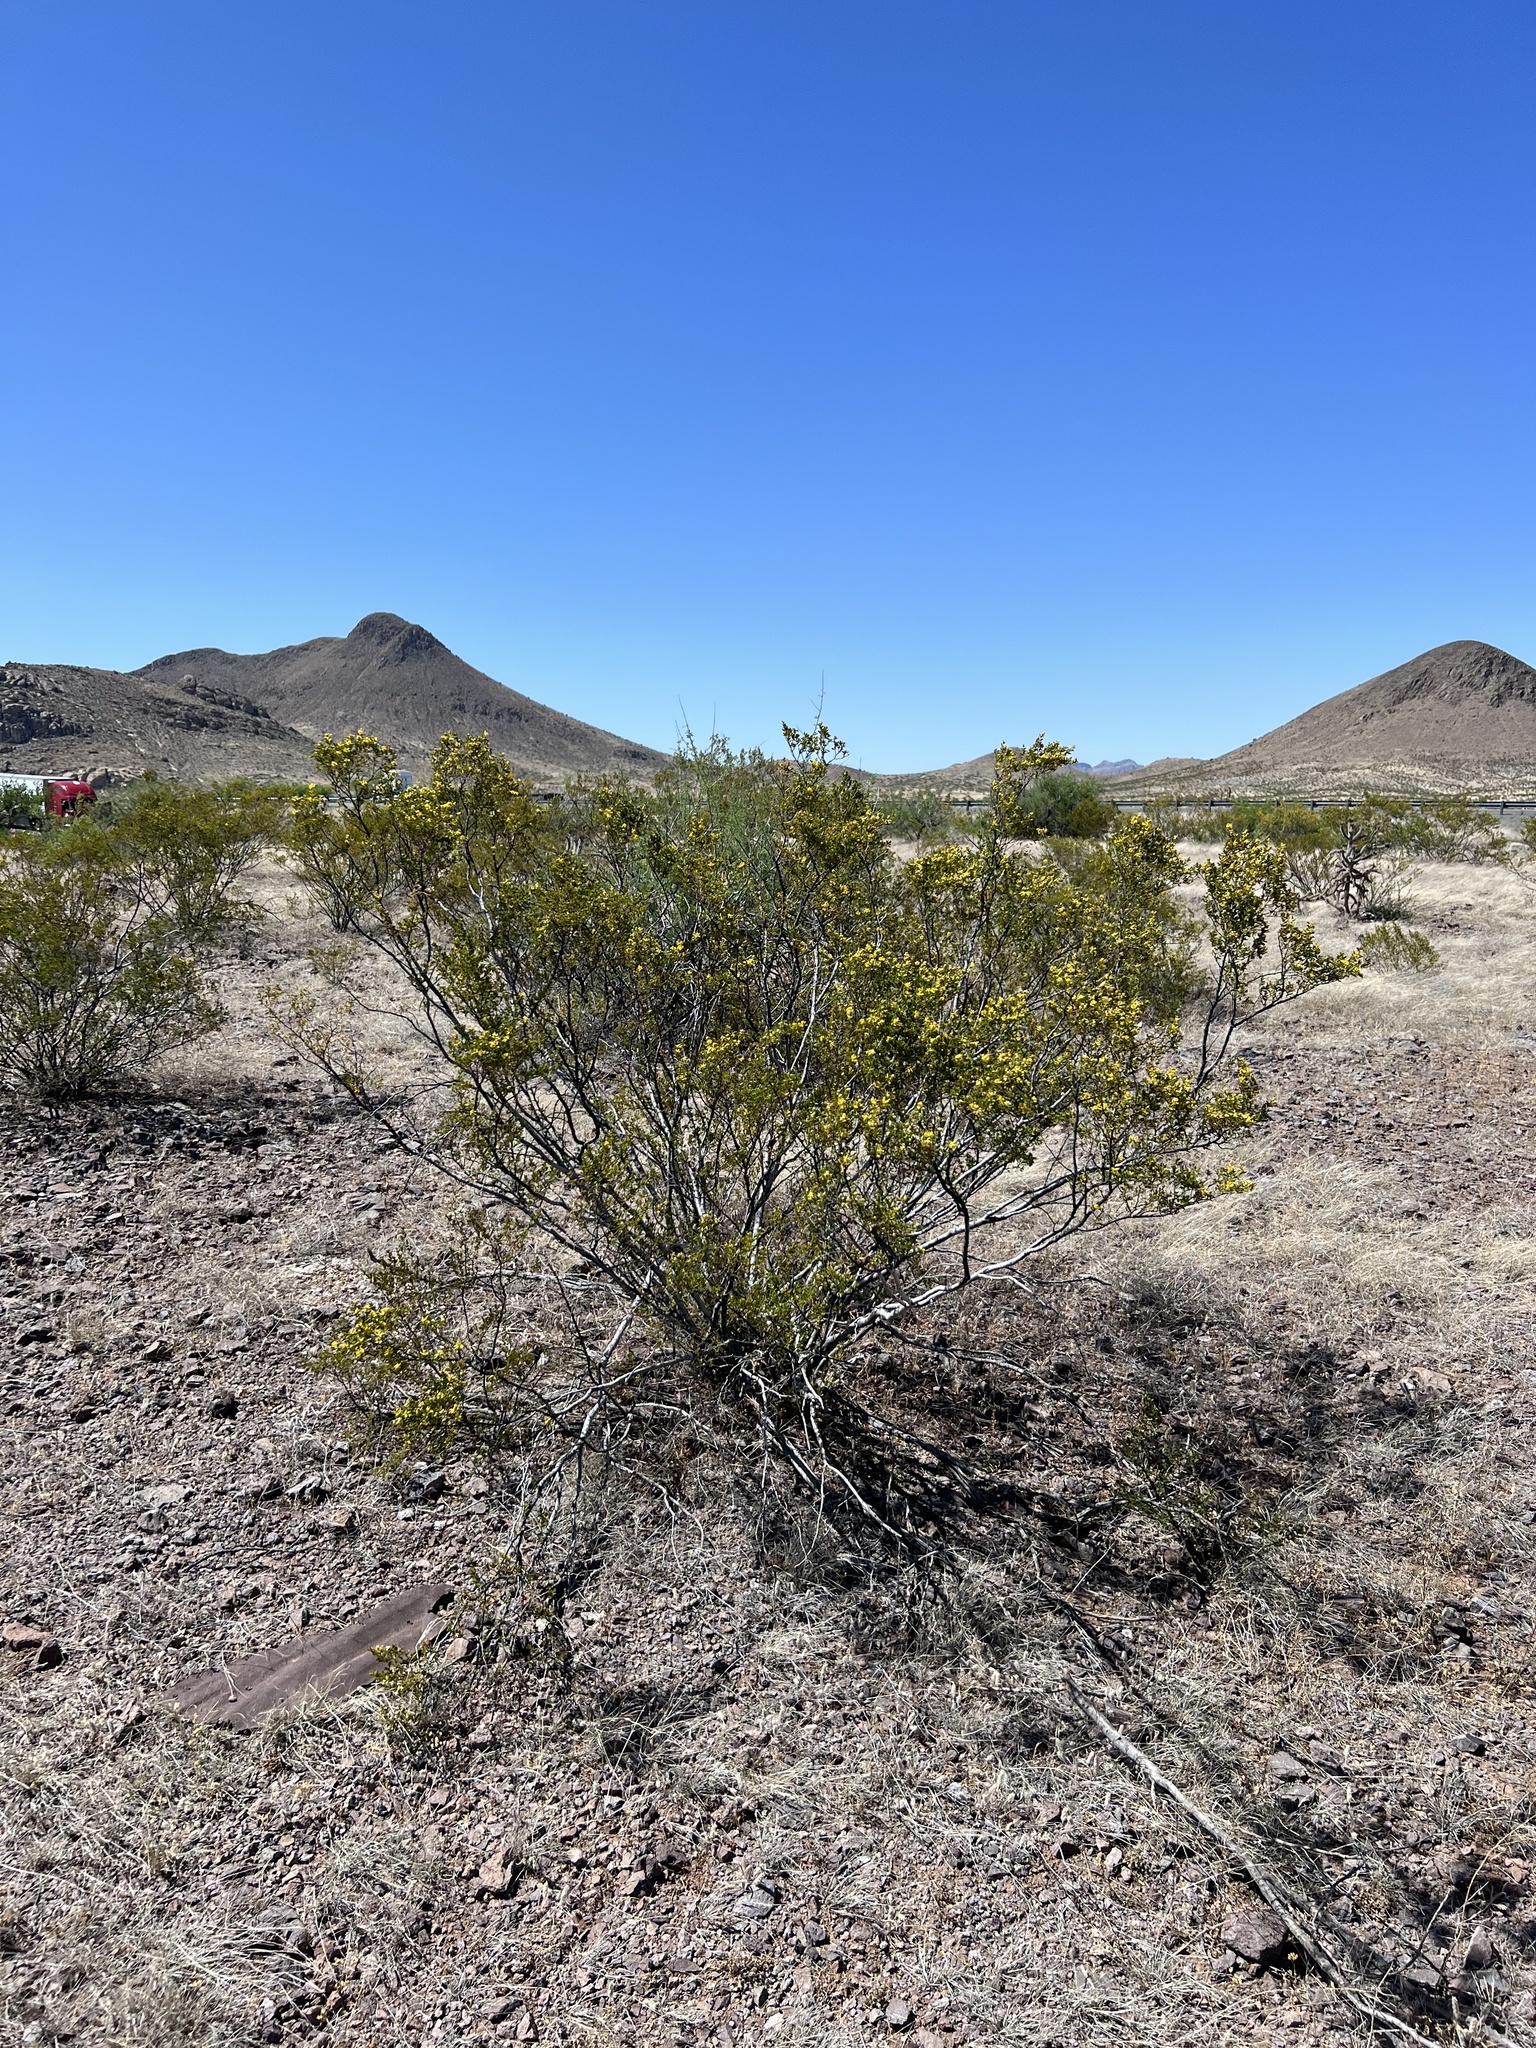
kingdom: Plantae
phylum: Tracheophyta
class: Magnoliopsida
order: Zygophyllales
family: Zygophyllaceae
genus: Larrea
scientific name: Larrea tridentata
